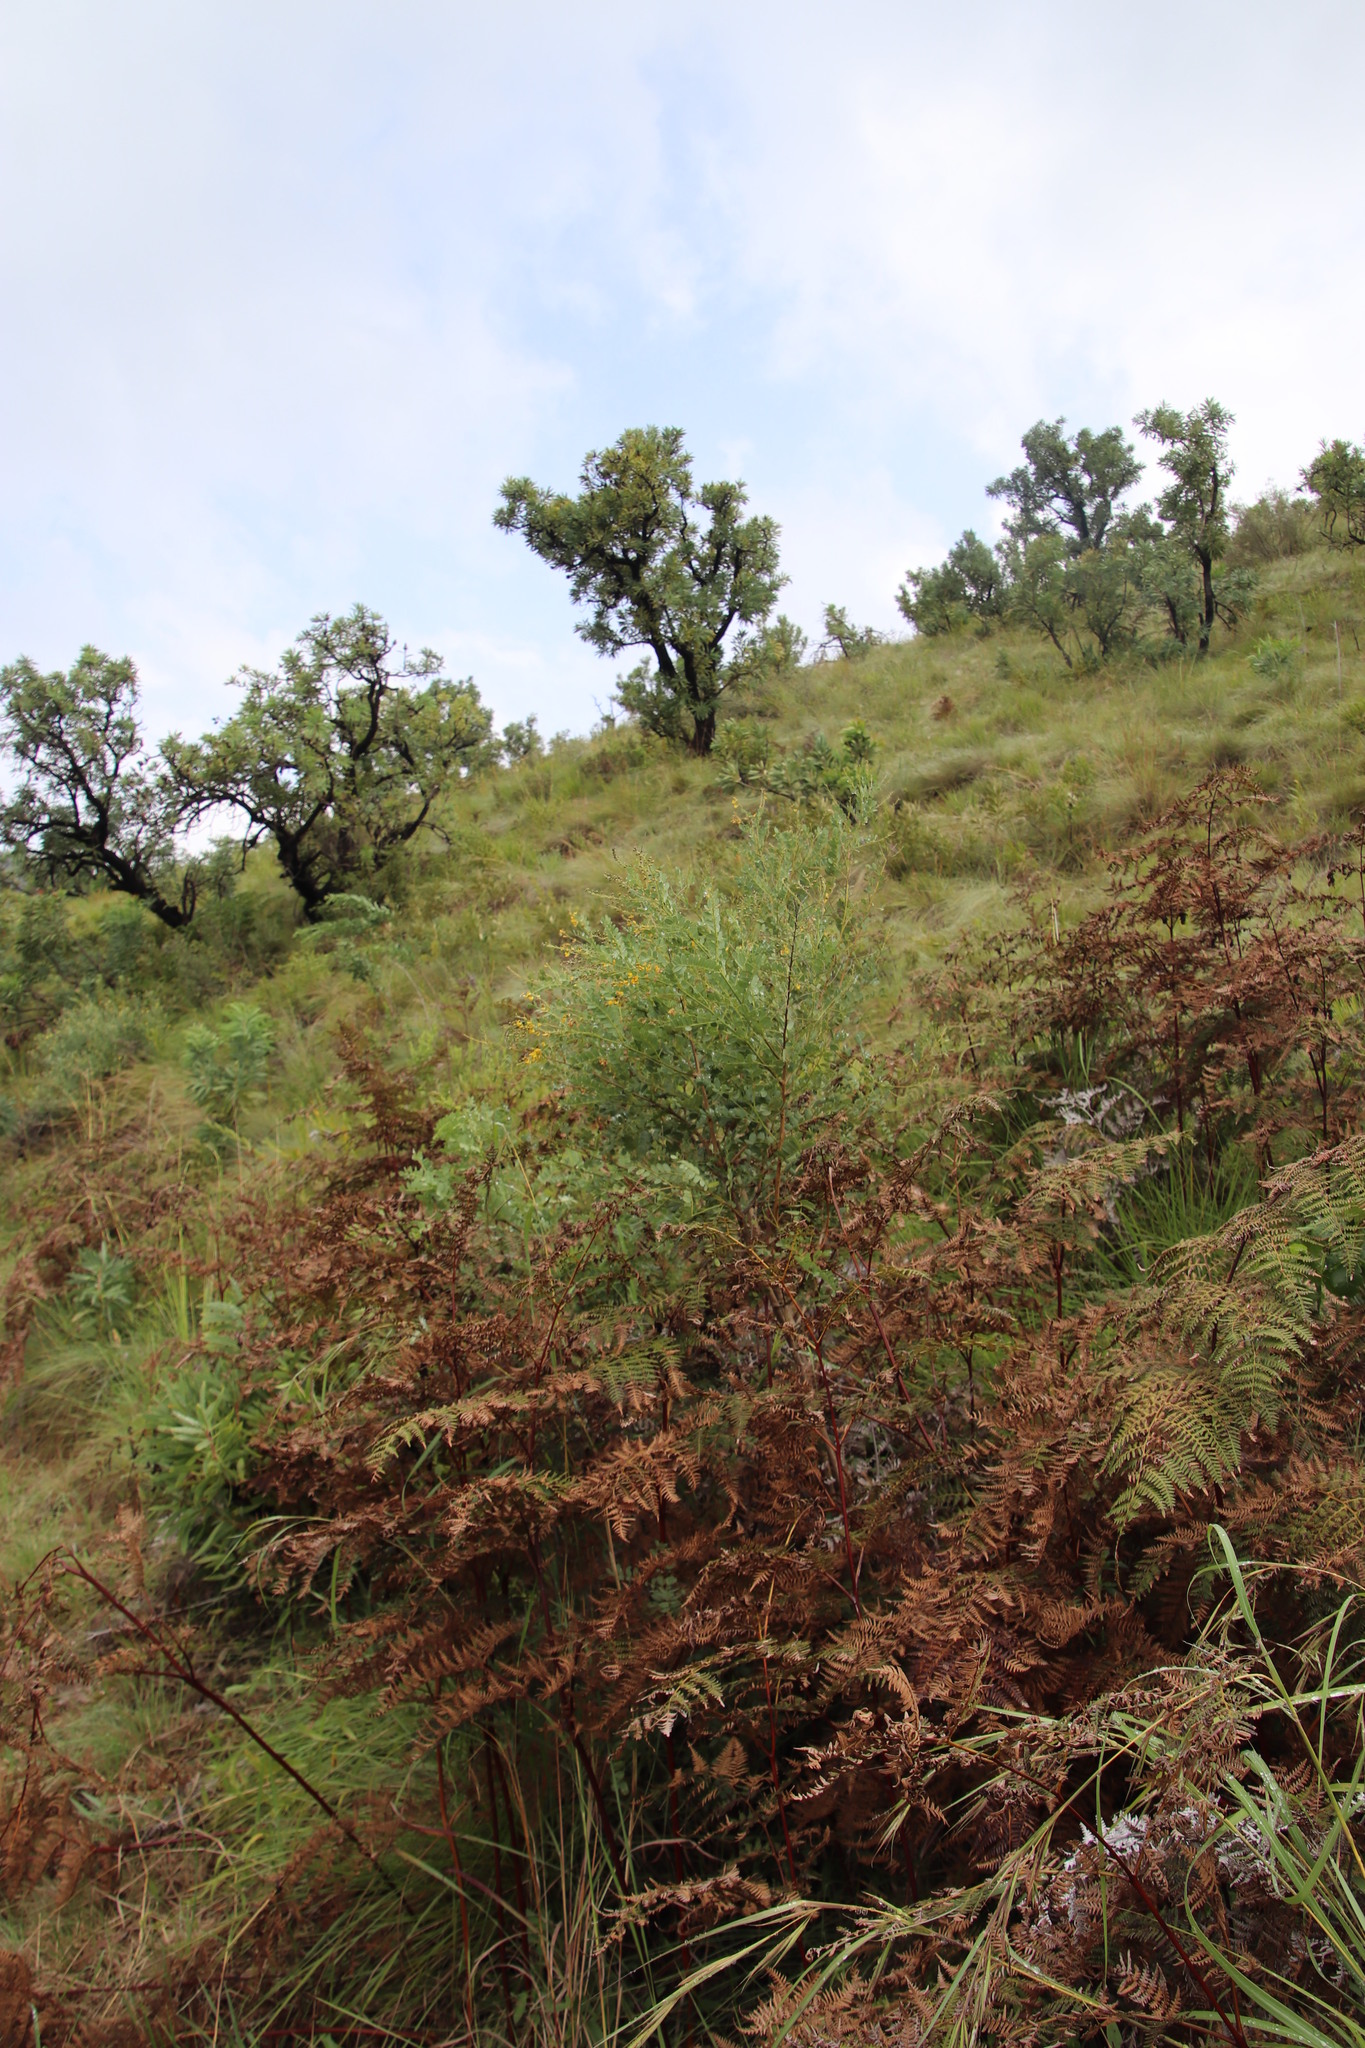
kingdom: Plantae
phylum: Tracheophyta
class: Magnoliopsida
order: Fabales
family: Fabaceae
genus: Calpurnia
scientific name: Calpurnia aurea
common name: Wild laburnum
